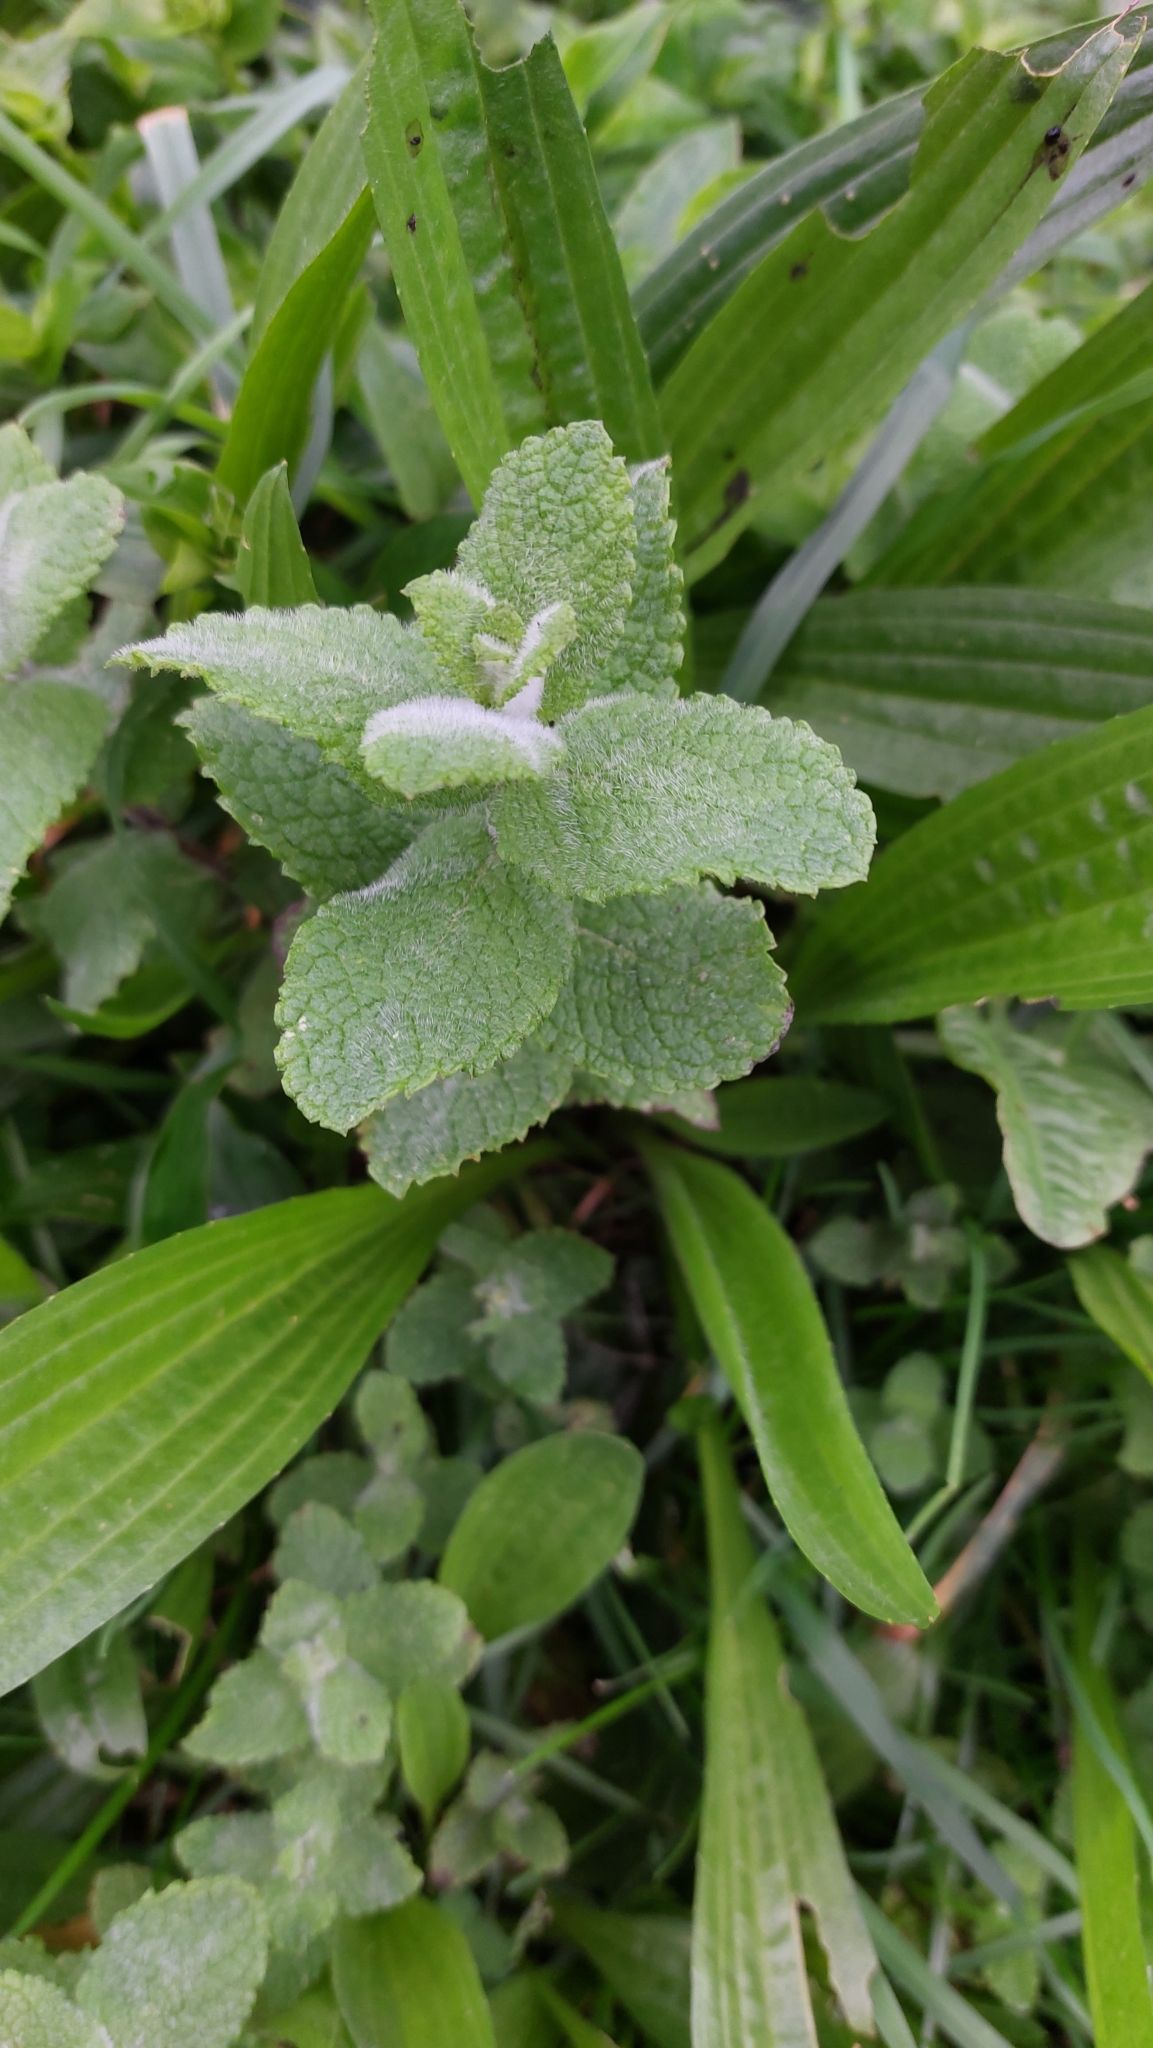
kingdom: Plantae
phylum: Tracheophyta
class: Magnoliopsida
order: Lamiales
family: Lamiaceae
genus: Mentha
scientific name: Mentha suaveolens
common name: Apple mint
